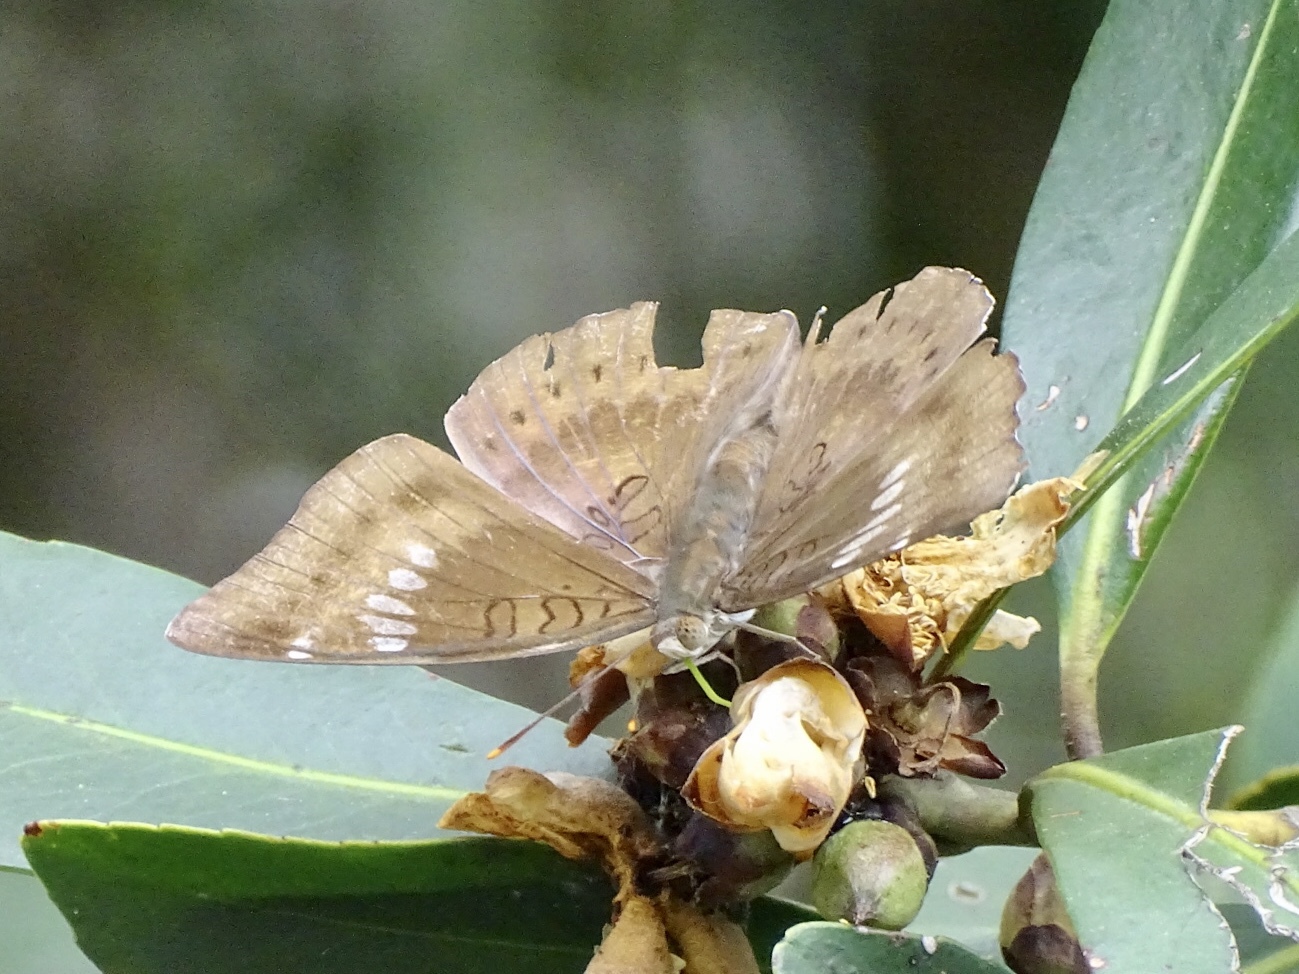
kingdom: Animalia
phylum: Arthropoda
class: Insecta
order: Lepidoptera
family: Nymphalidae
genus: Euthalia
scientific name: Euthalia aconthea
